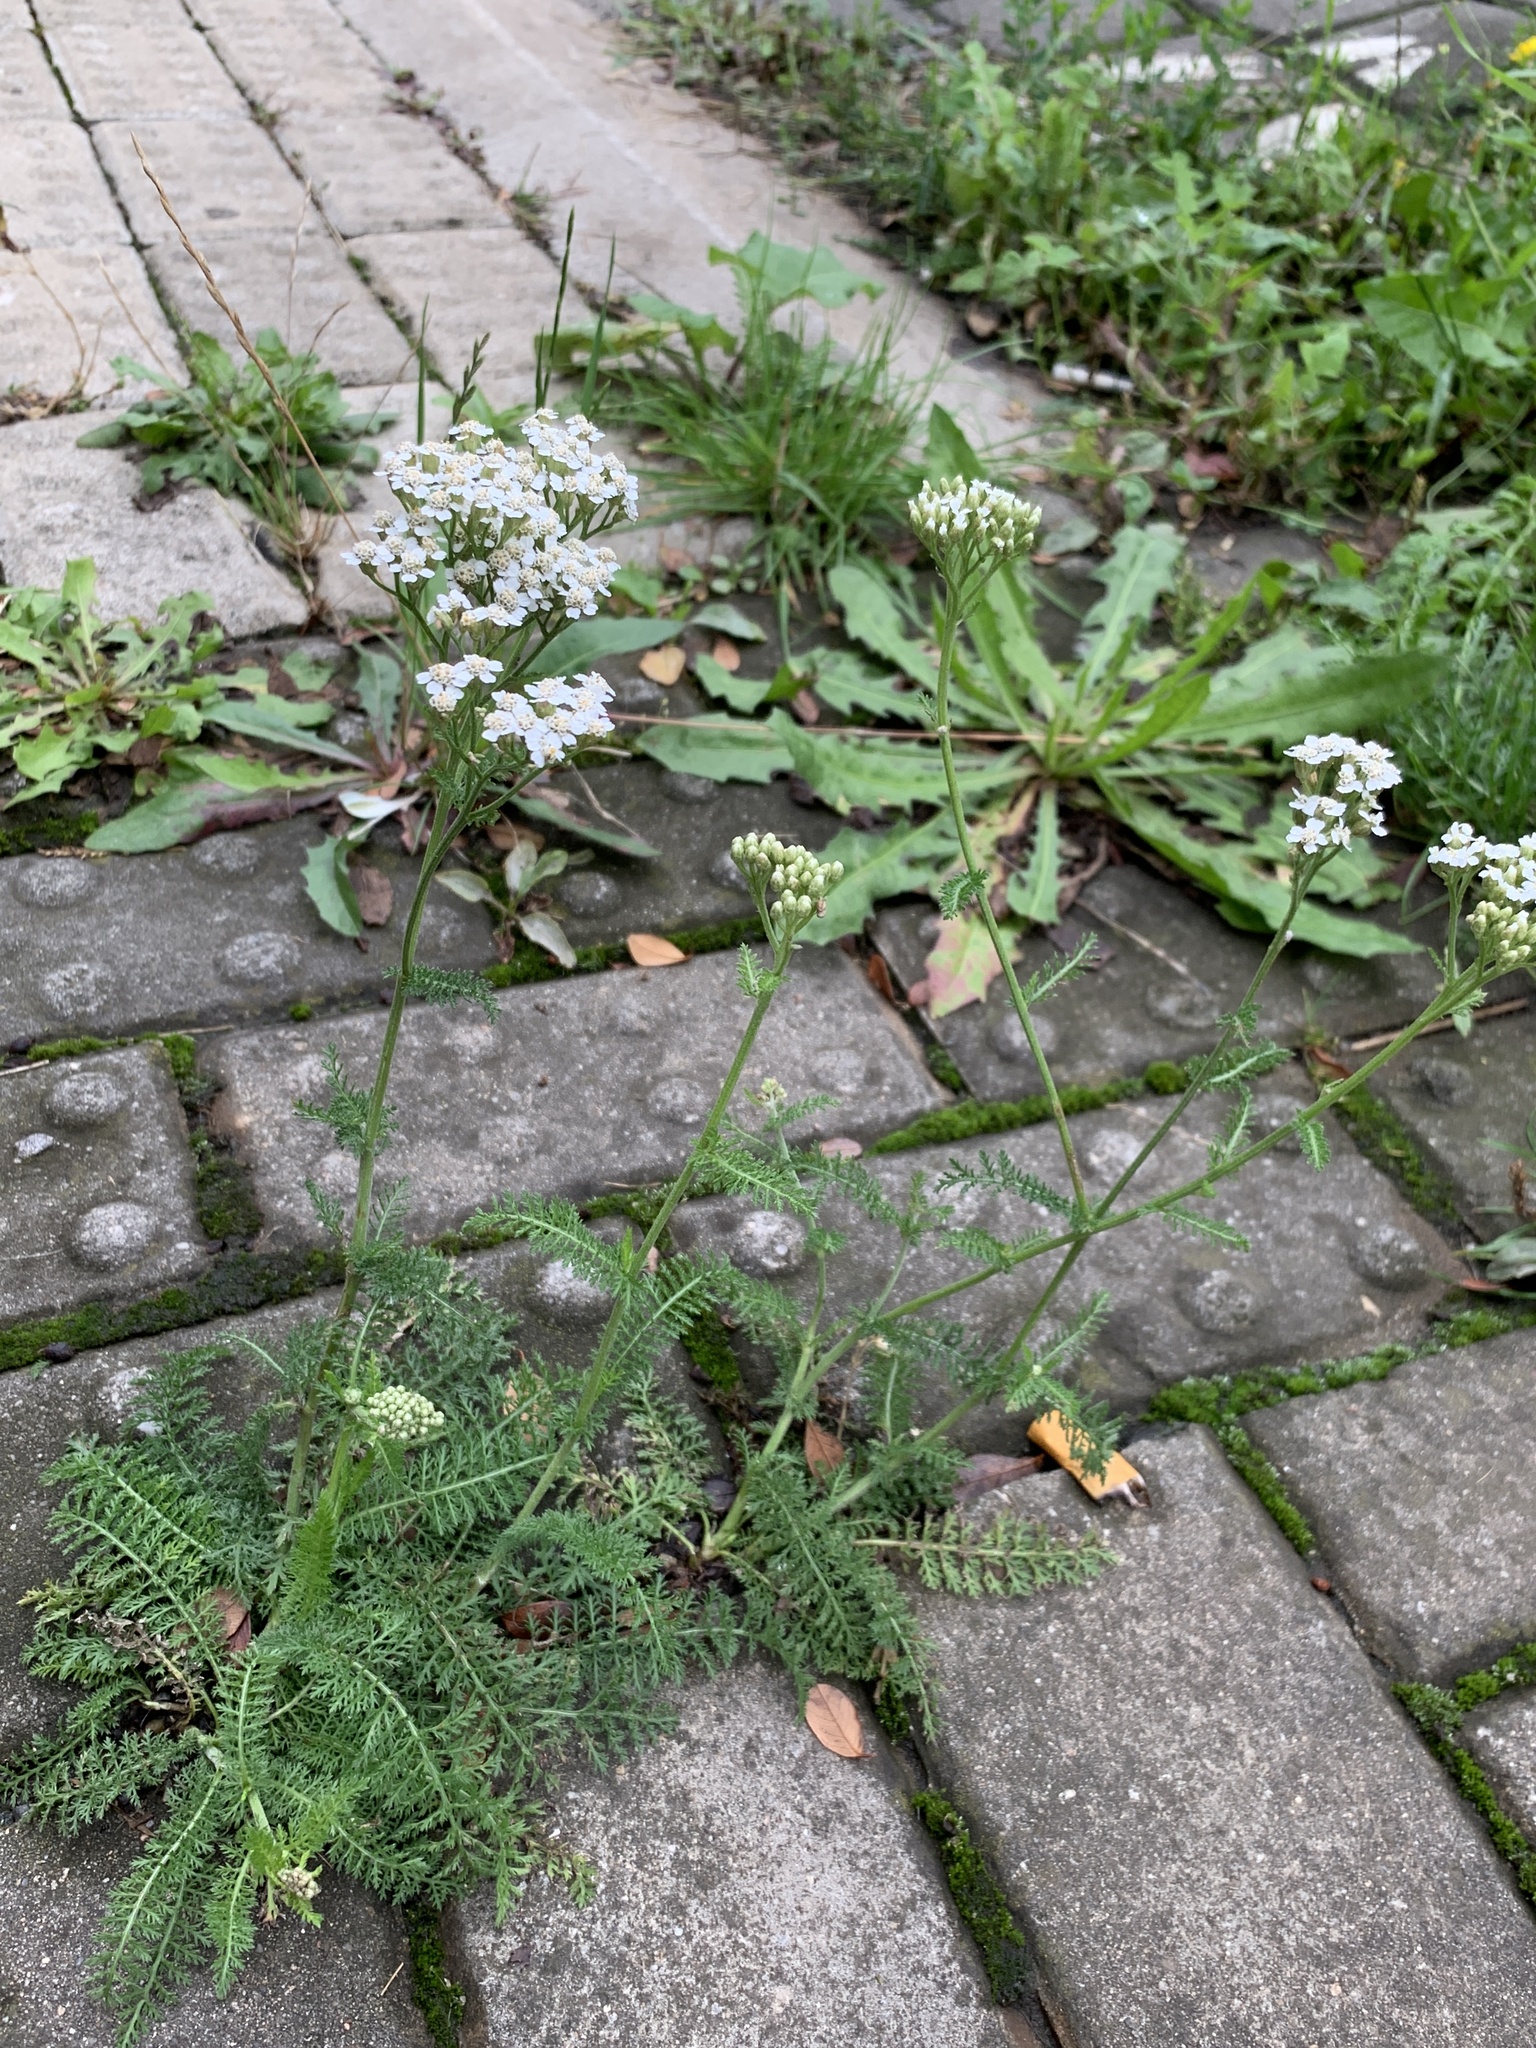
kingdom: Plantae
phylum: Tracheophyta
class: Magnoliopsida
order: Asterales
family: Asteraceae
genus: Achillea
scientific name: Achillea millefolium
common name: Yarrow
